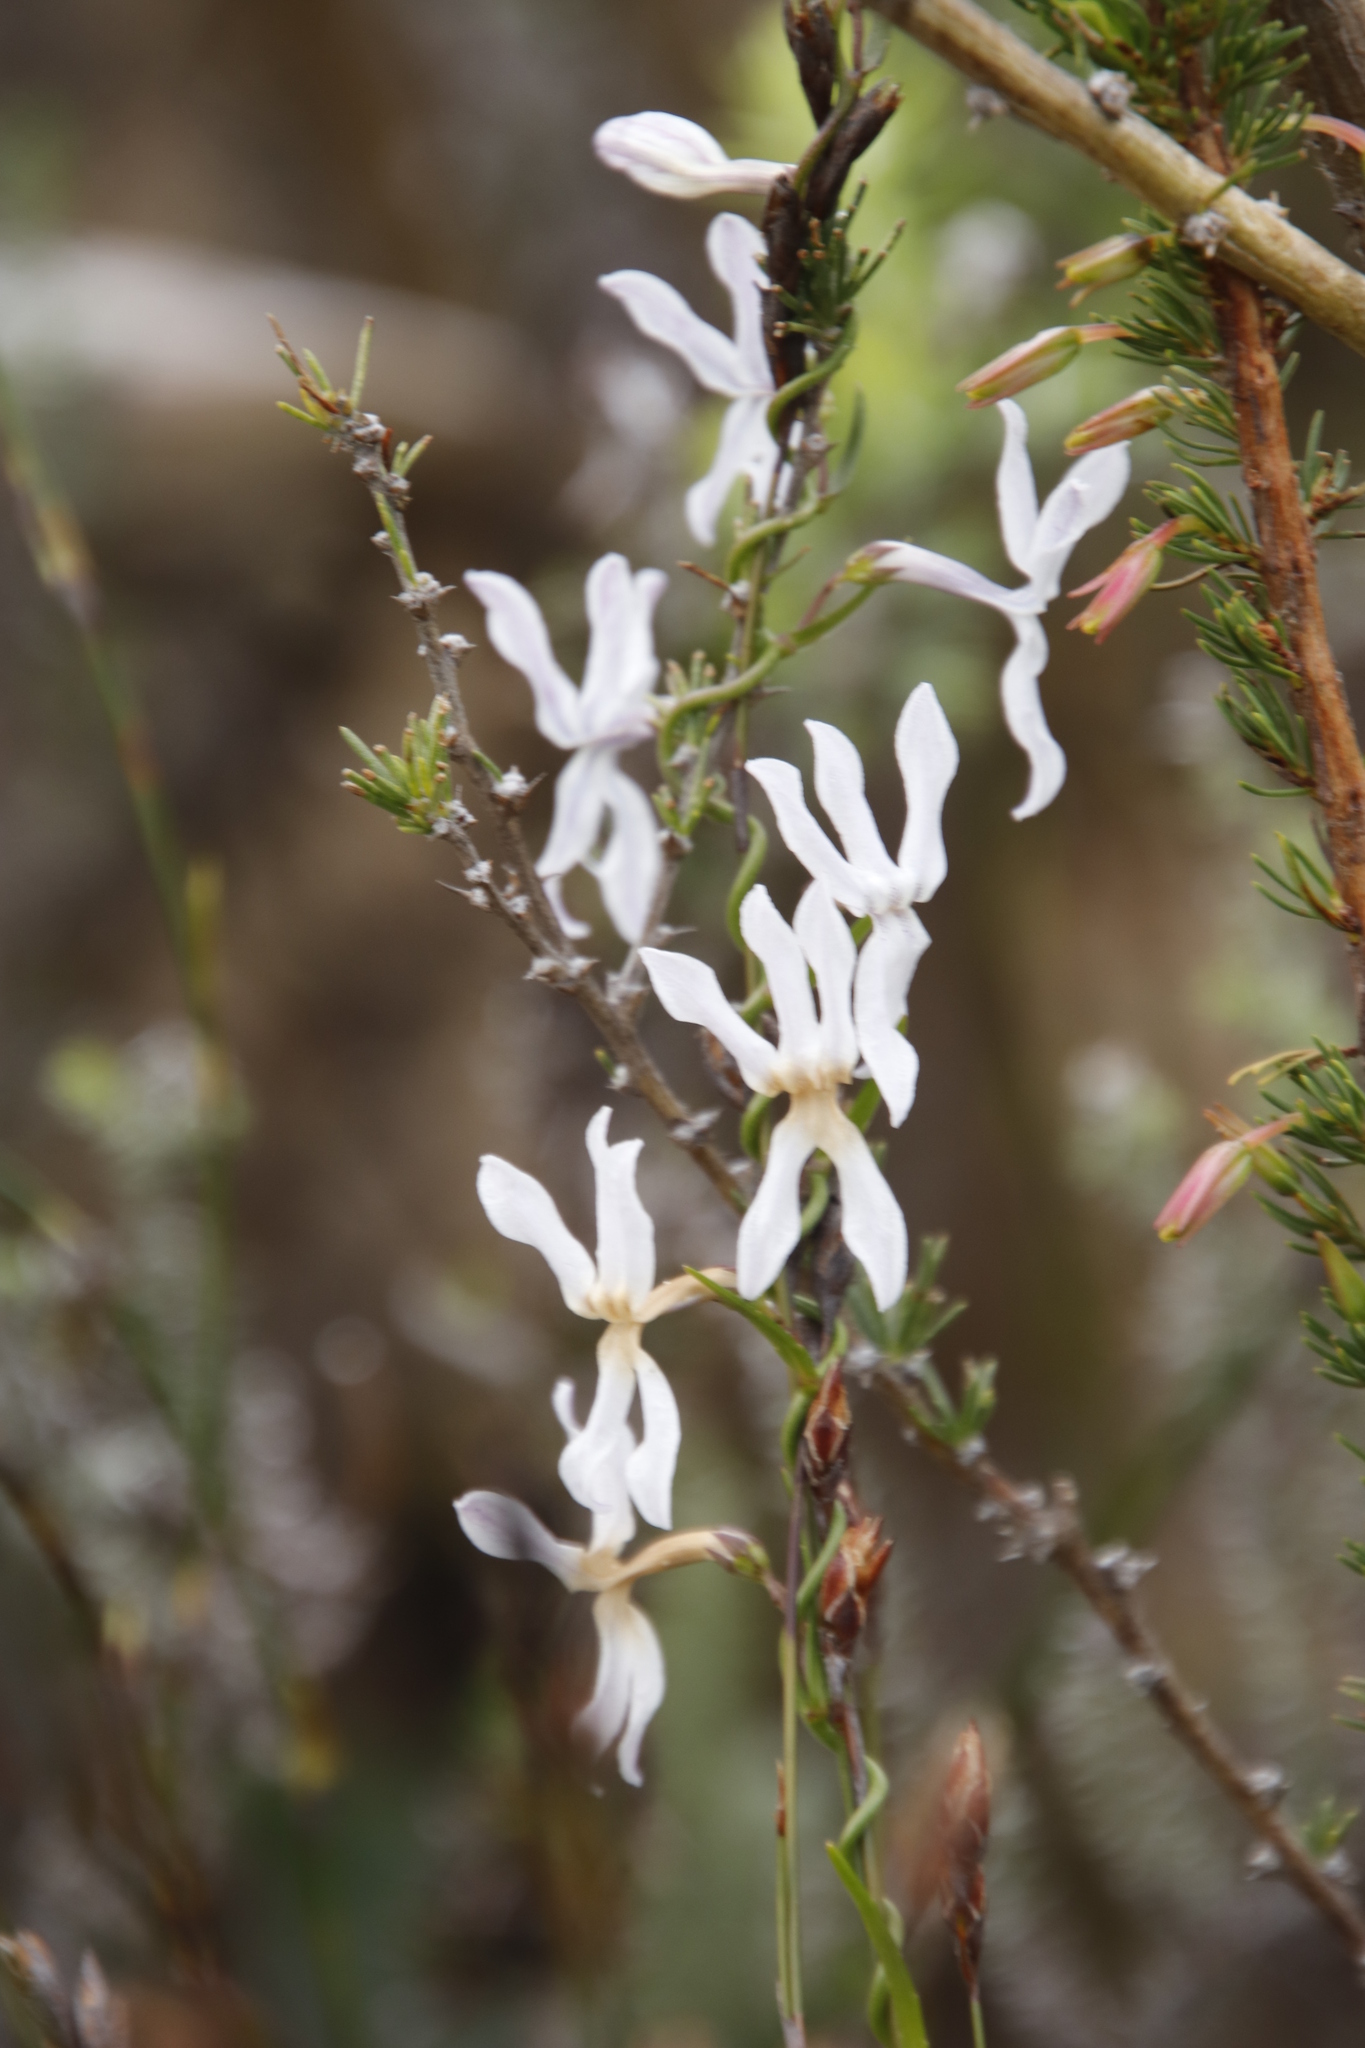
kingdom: Plantae
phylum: Tracheophyta
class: Magnoliopsida
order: Asterales
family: Campanulaceae
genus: Cyphia
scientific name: Cyphia volubilis
